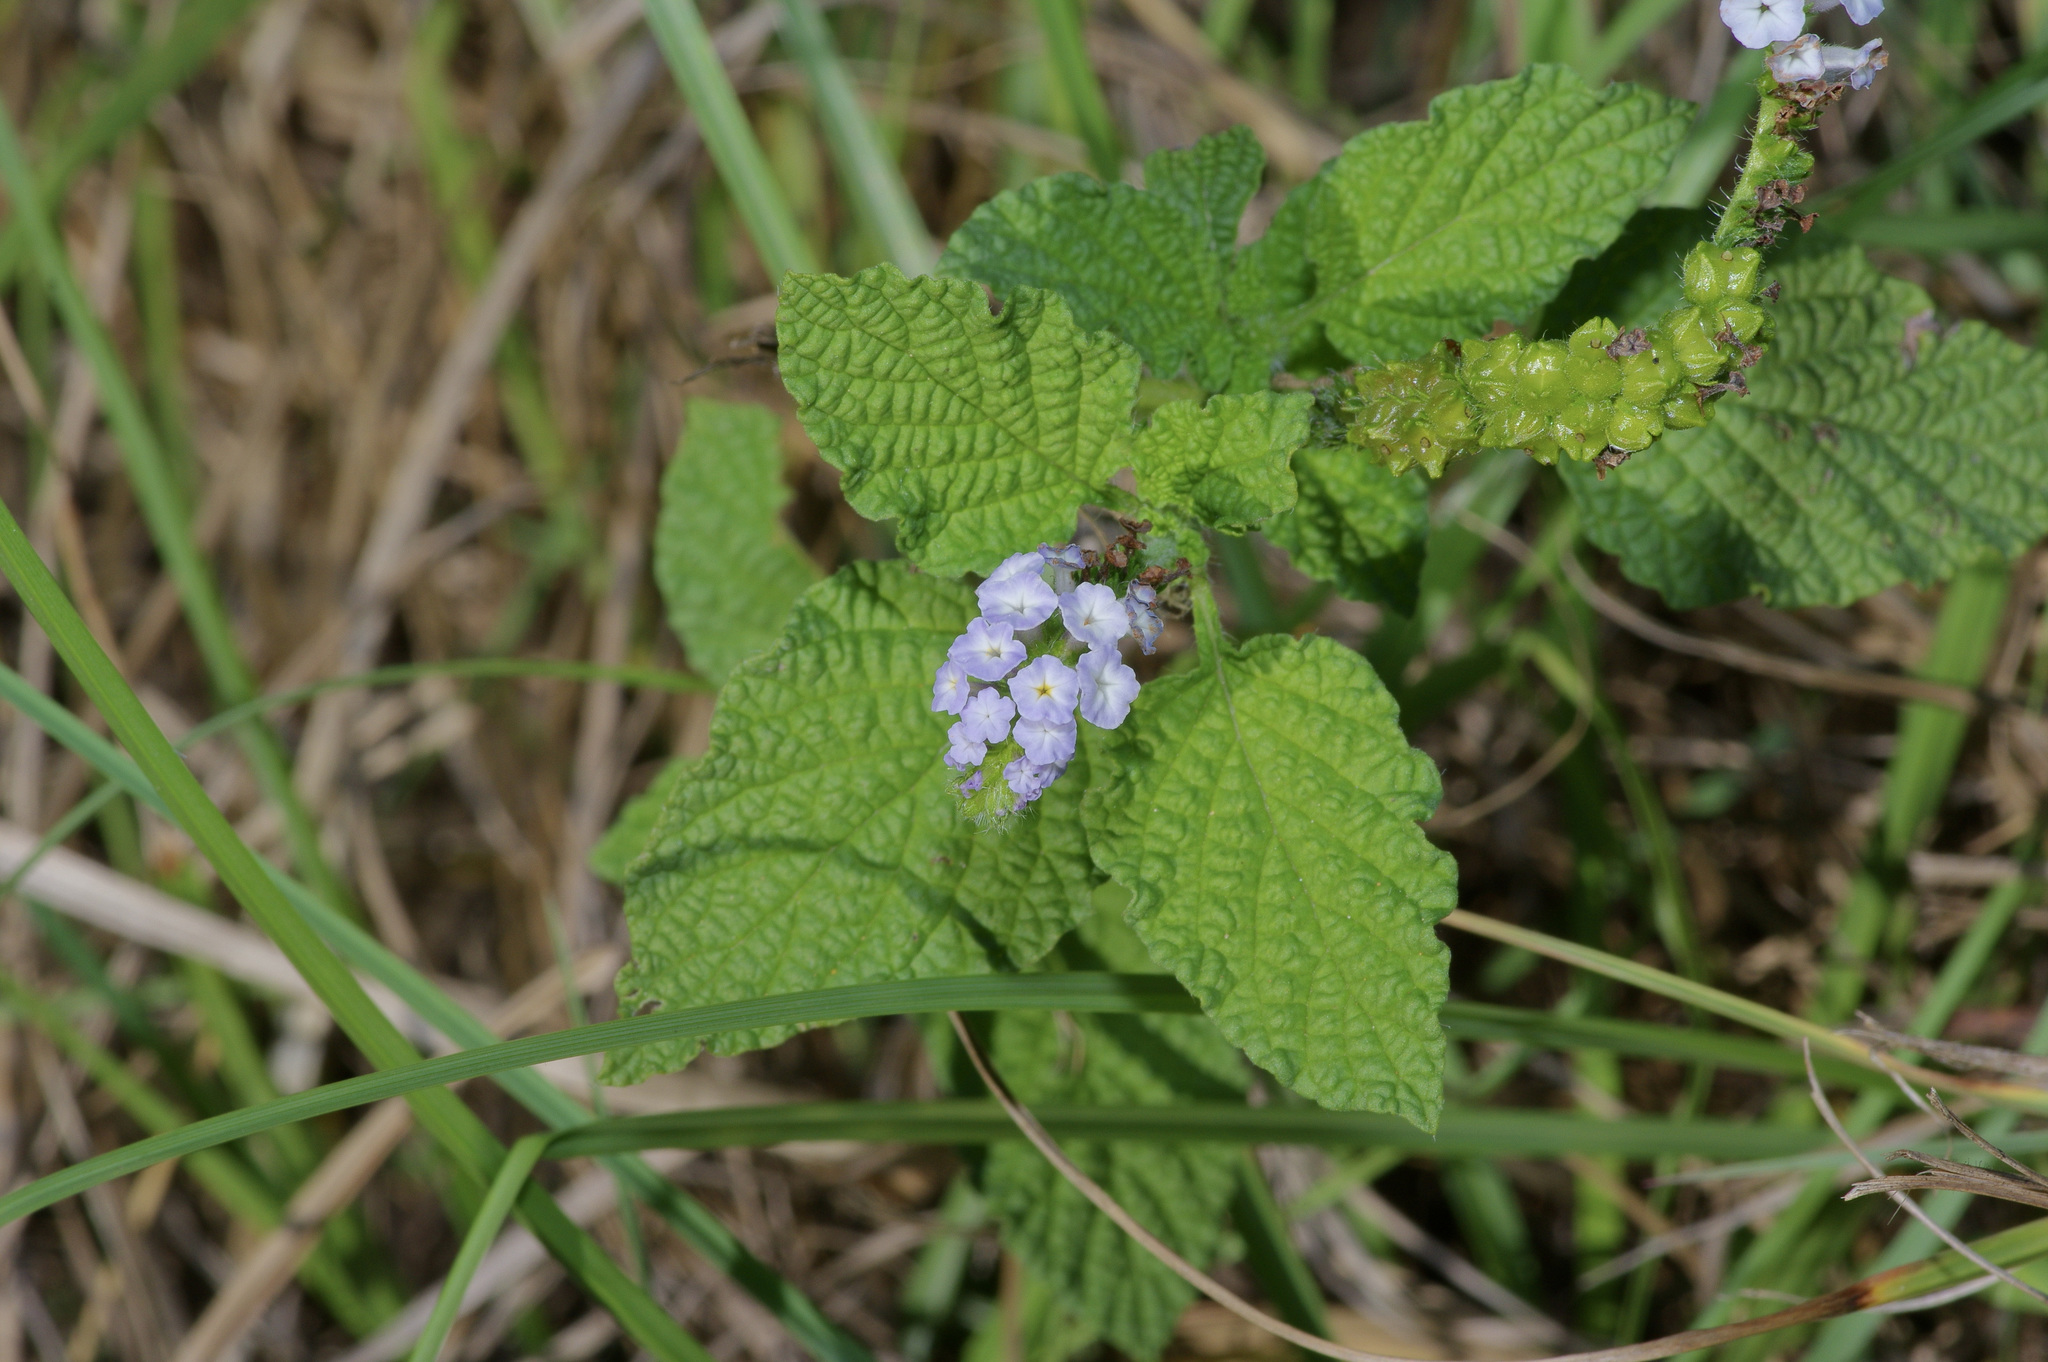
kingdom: Plantae
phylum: Tracheophyta
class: Magnoliopsida
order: Boraginales
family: Heliotropiaceae
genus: Heliotropium
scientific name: Heliotropium indicum
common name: Indian heliotrope
